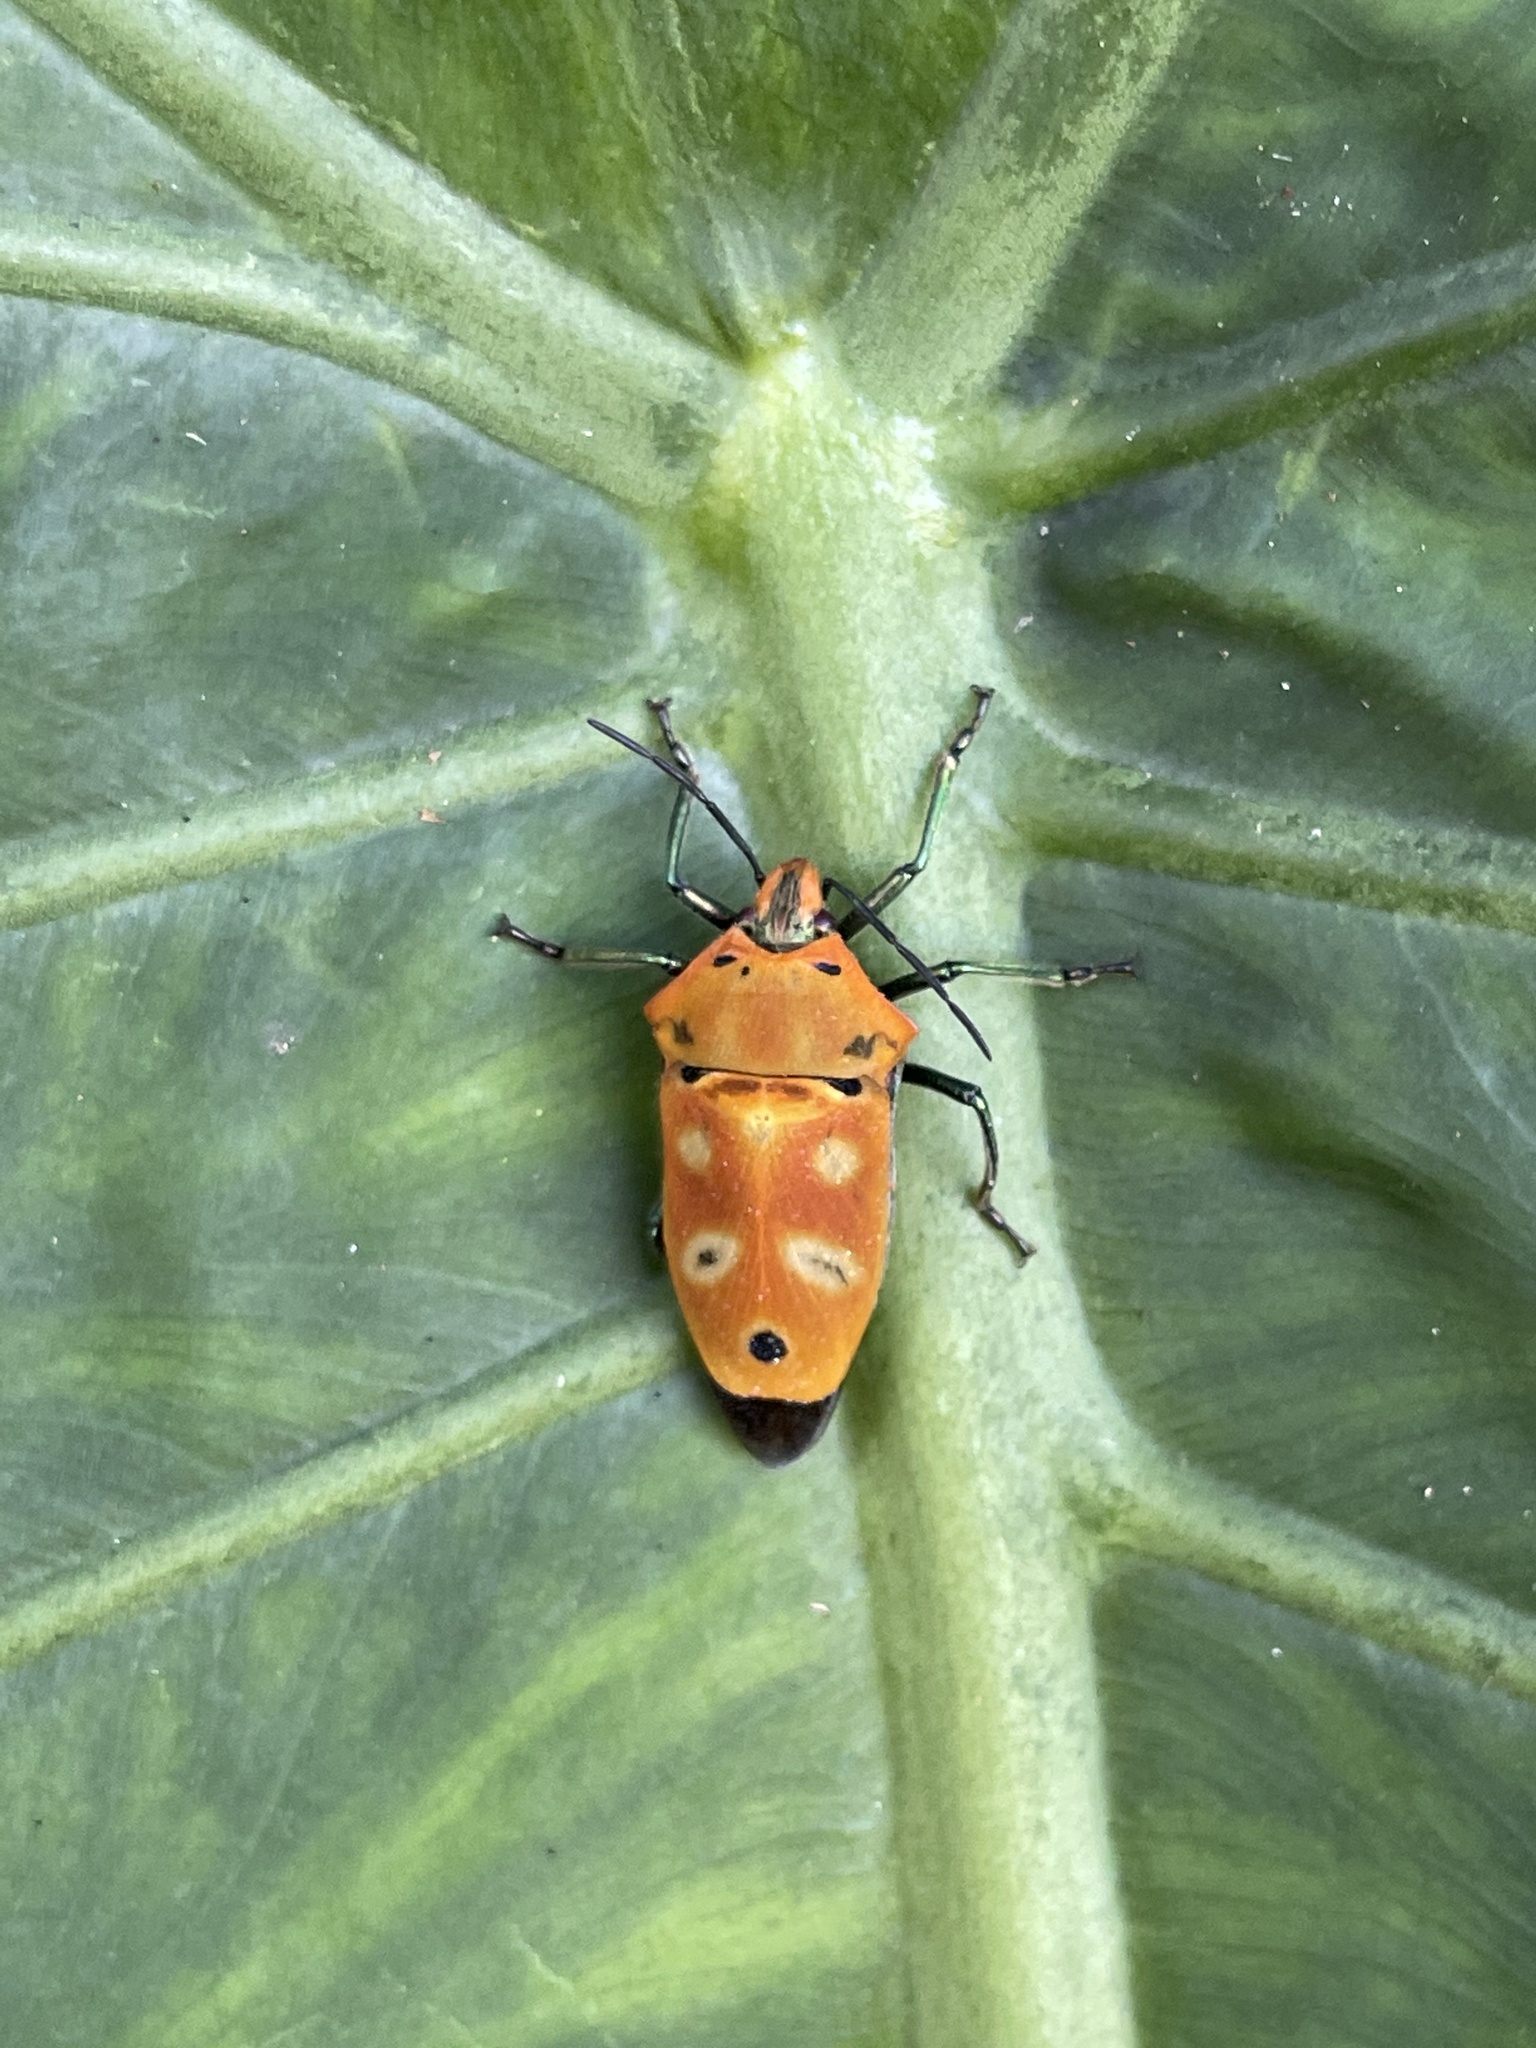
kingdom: Animalia
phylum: Arthropoda
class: Insecta
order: Hemiptera
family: Scutelleridae
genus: Cantao
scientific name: Cantao ocellatus
